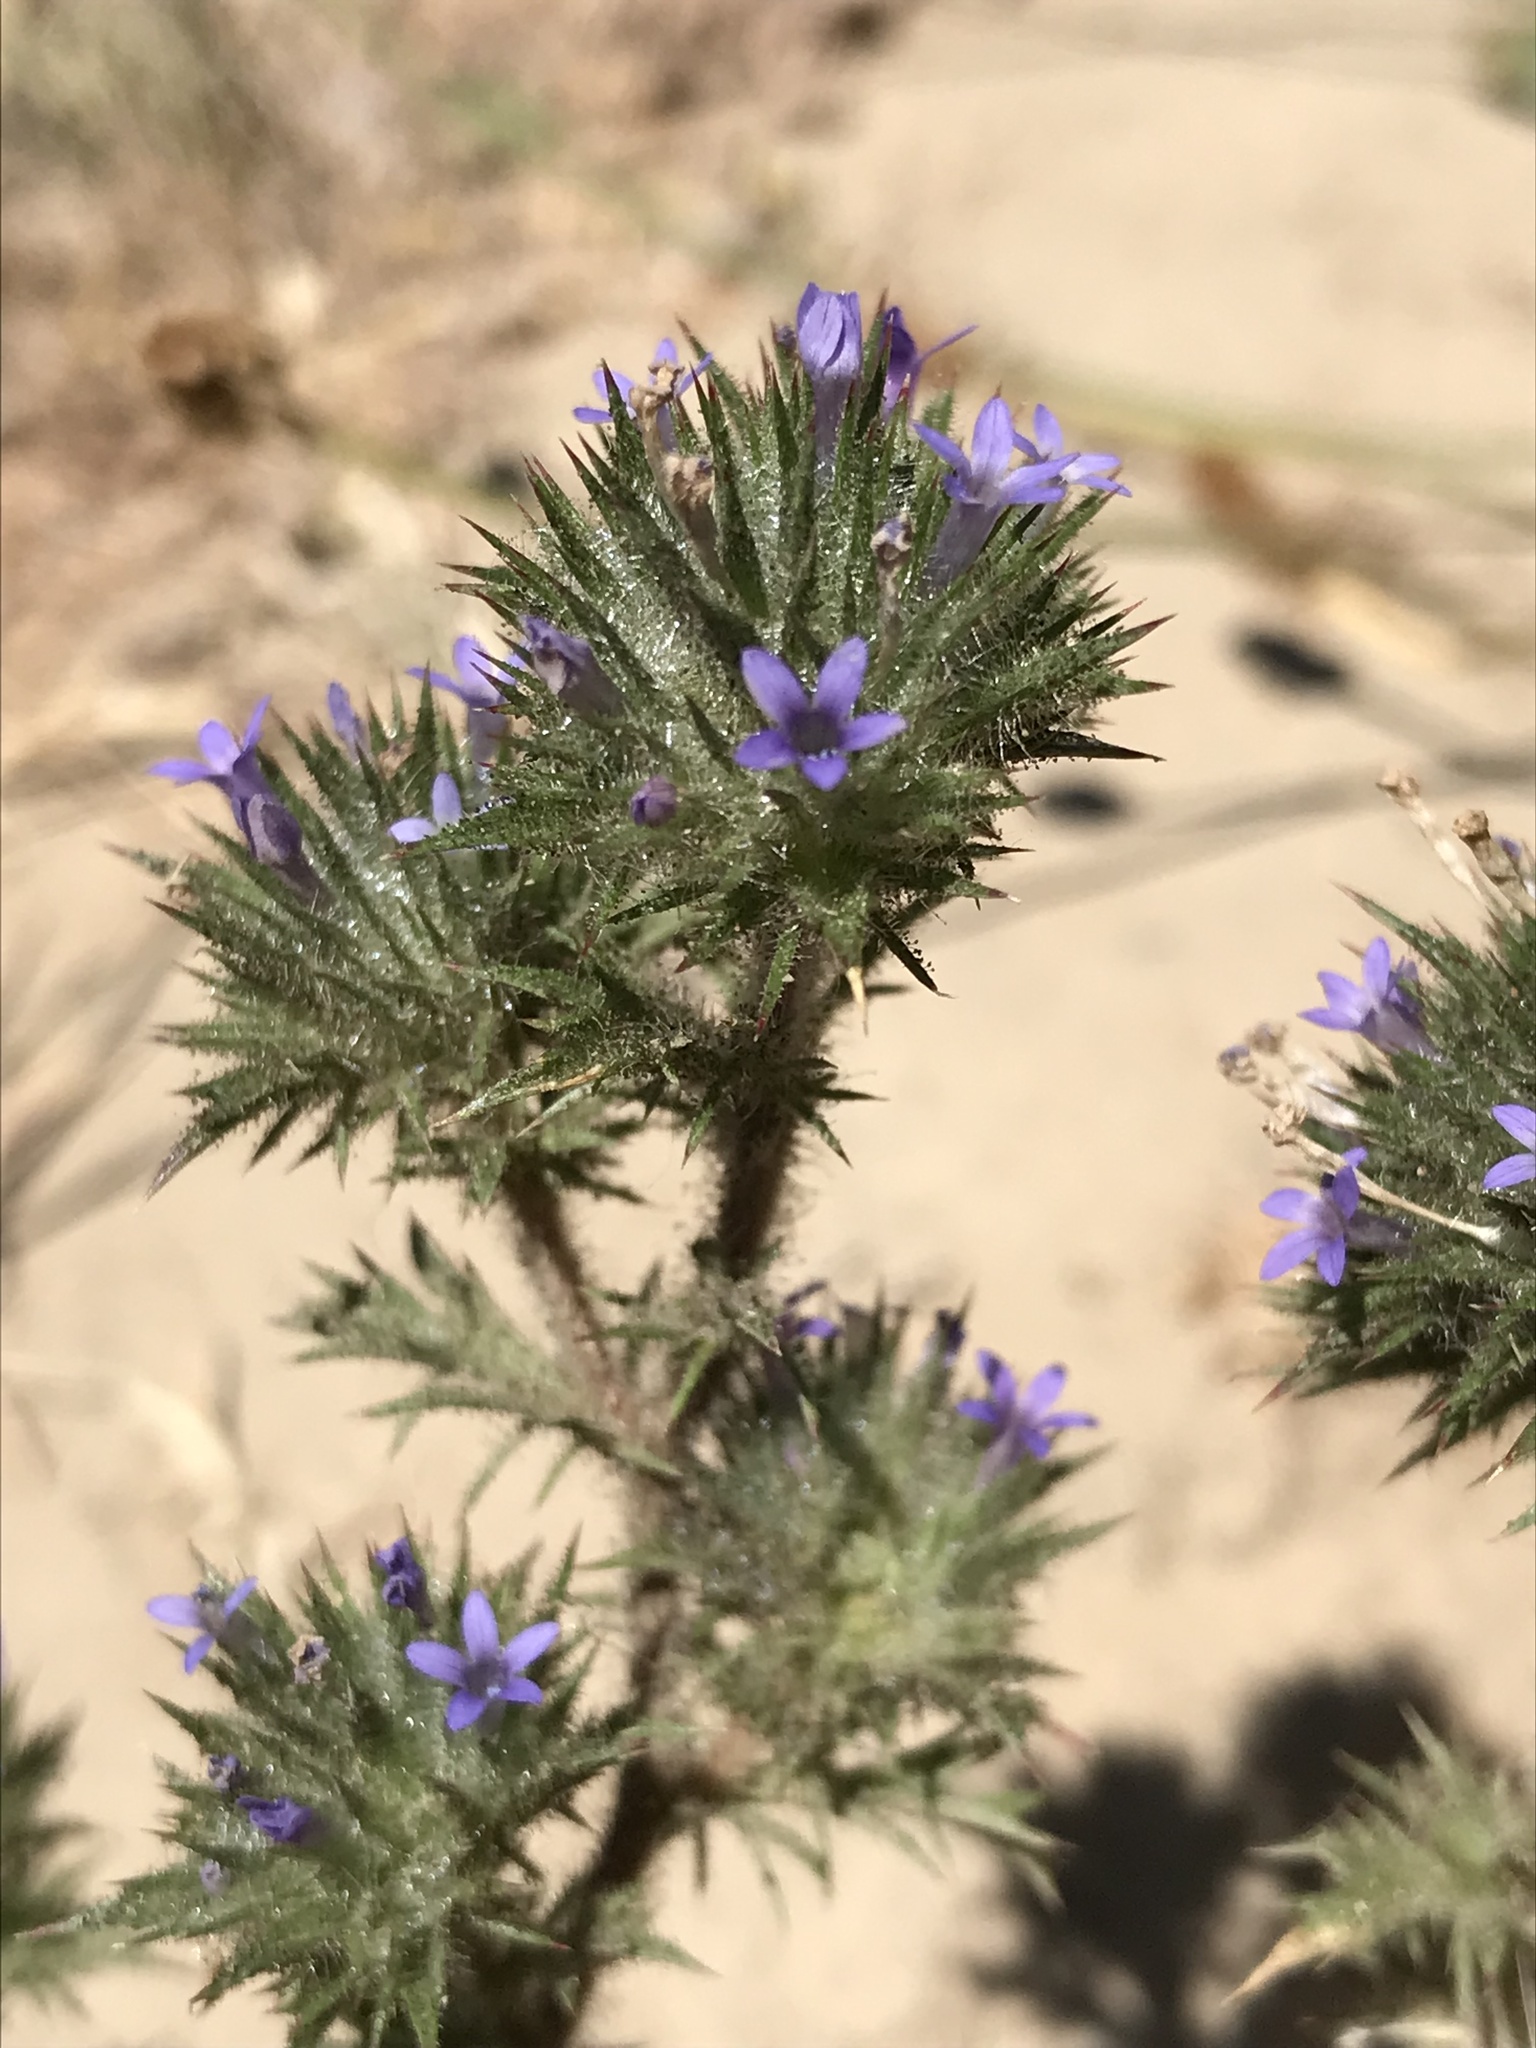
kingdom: Plantae
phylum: Tracheophyta
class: Magnoliopsida
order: Ericales
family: Polemoniaceae
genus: Navarretia
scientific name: Navarretia squarrosa
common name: Skunkweed
